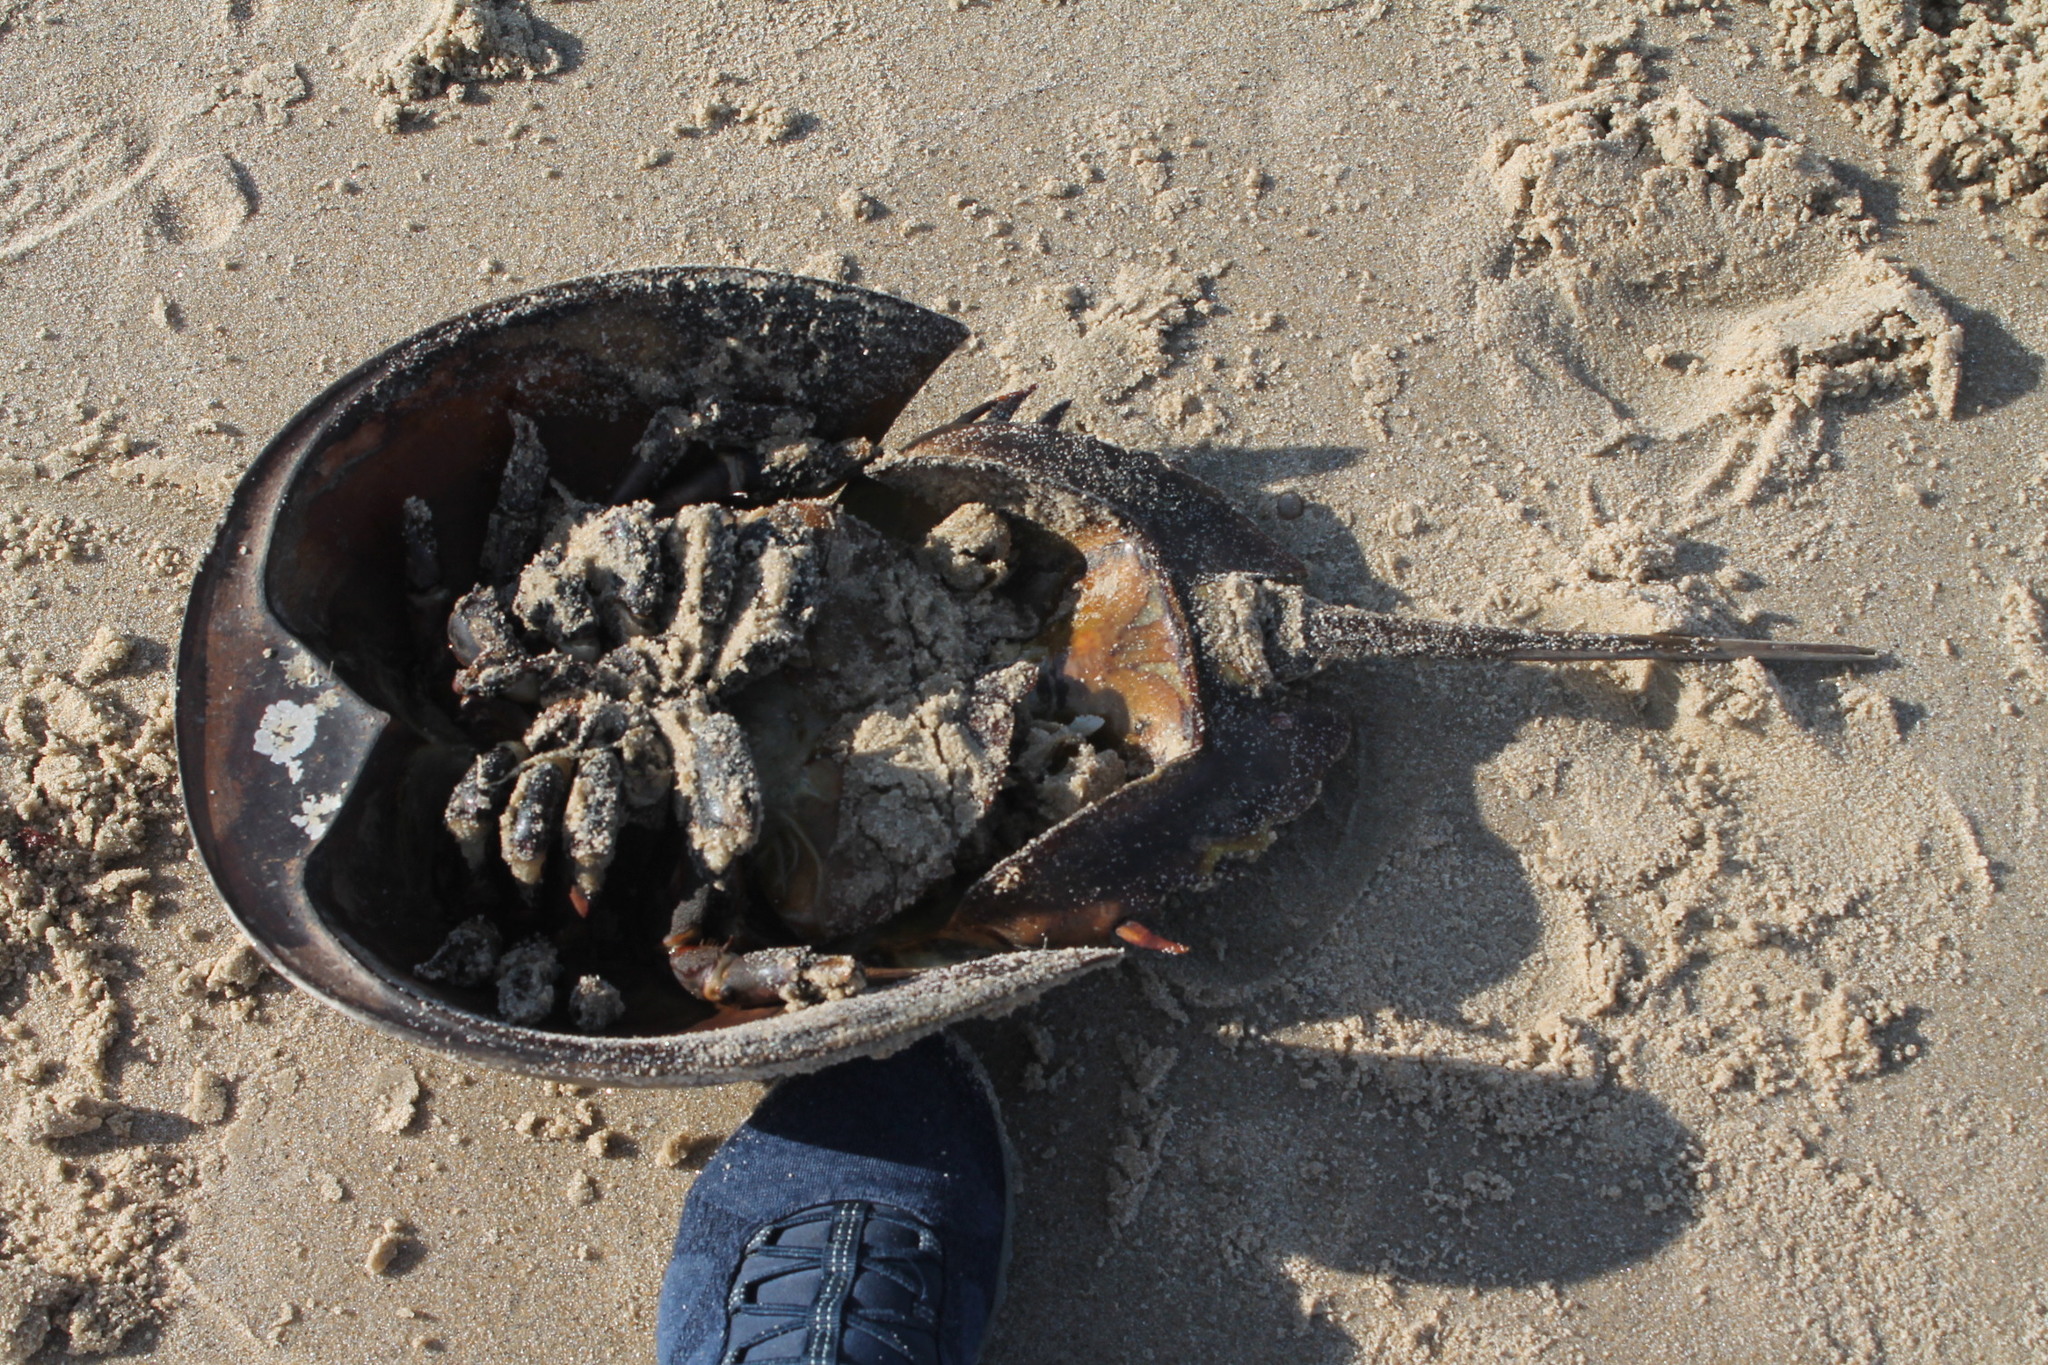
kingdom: Animalia
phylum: Arthropoda
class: Merostomata
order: Xiphosurida
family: Limulidae
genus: Limulus
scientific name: Limulus polyphemus
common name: Horseshoe crab
